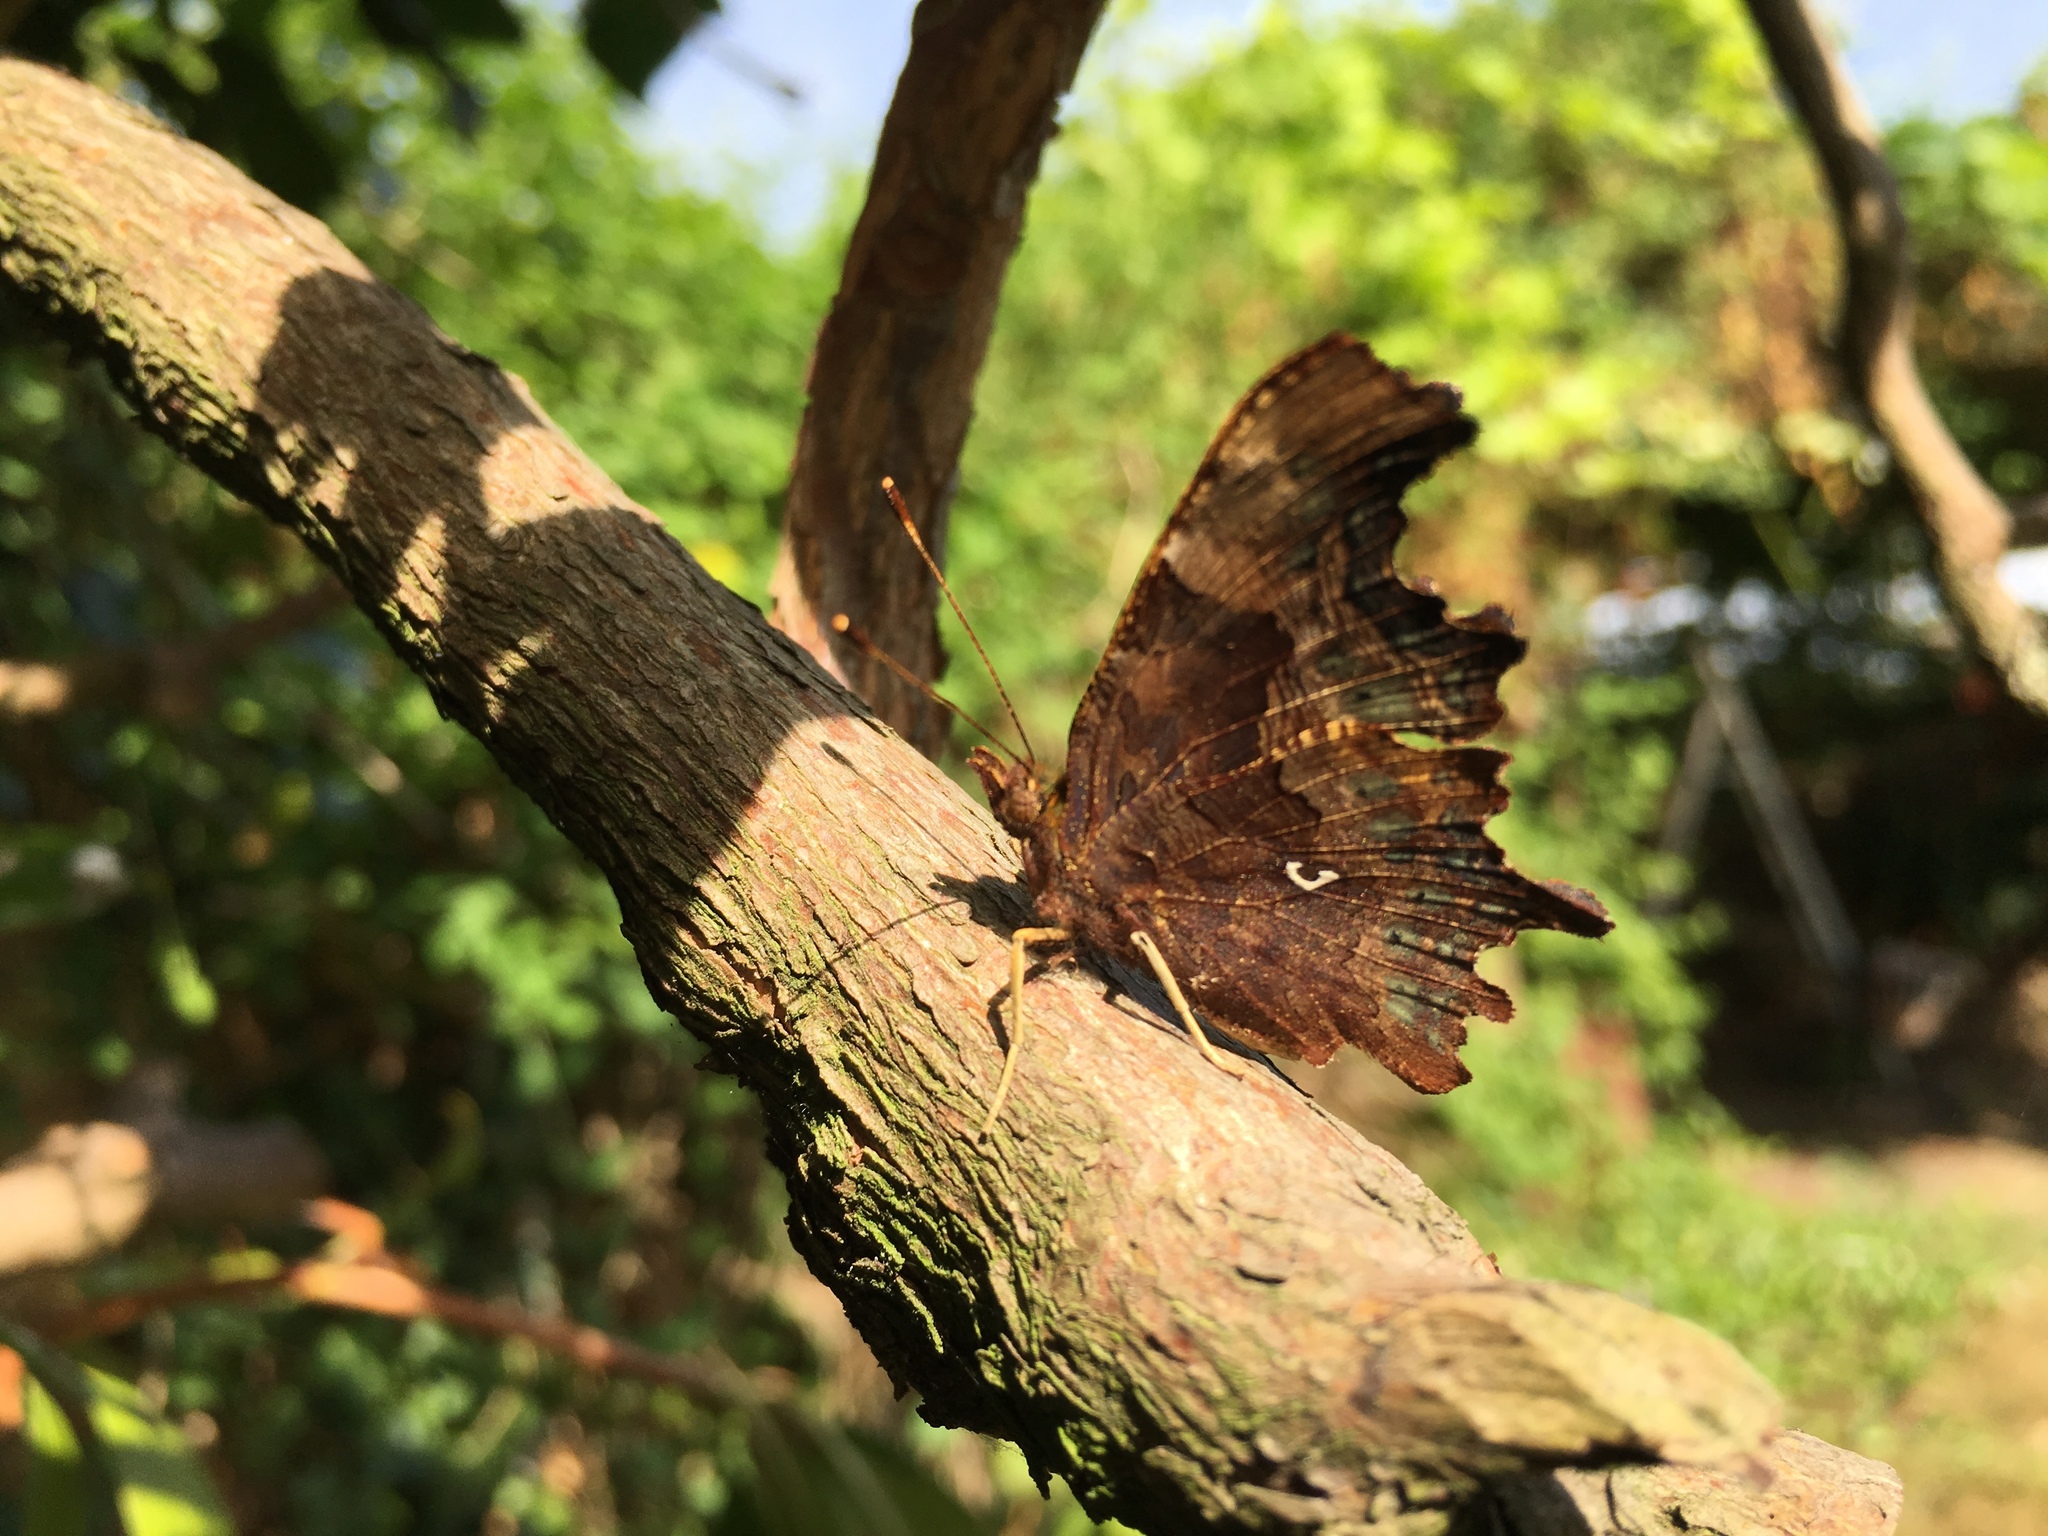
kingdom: Animalia
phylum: Arthropoda
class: Insecta
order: Lepidoptera
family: Nymphalidae
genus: Polygonia
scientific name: Polygonia c-album
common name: Comma
